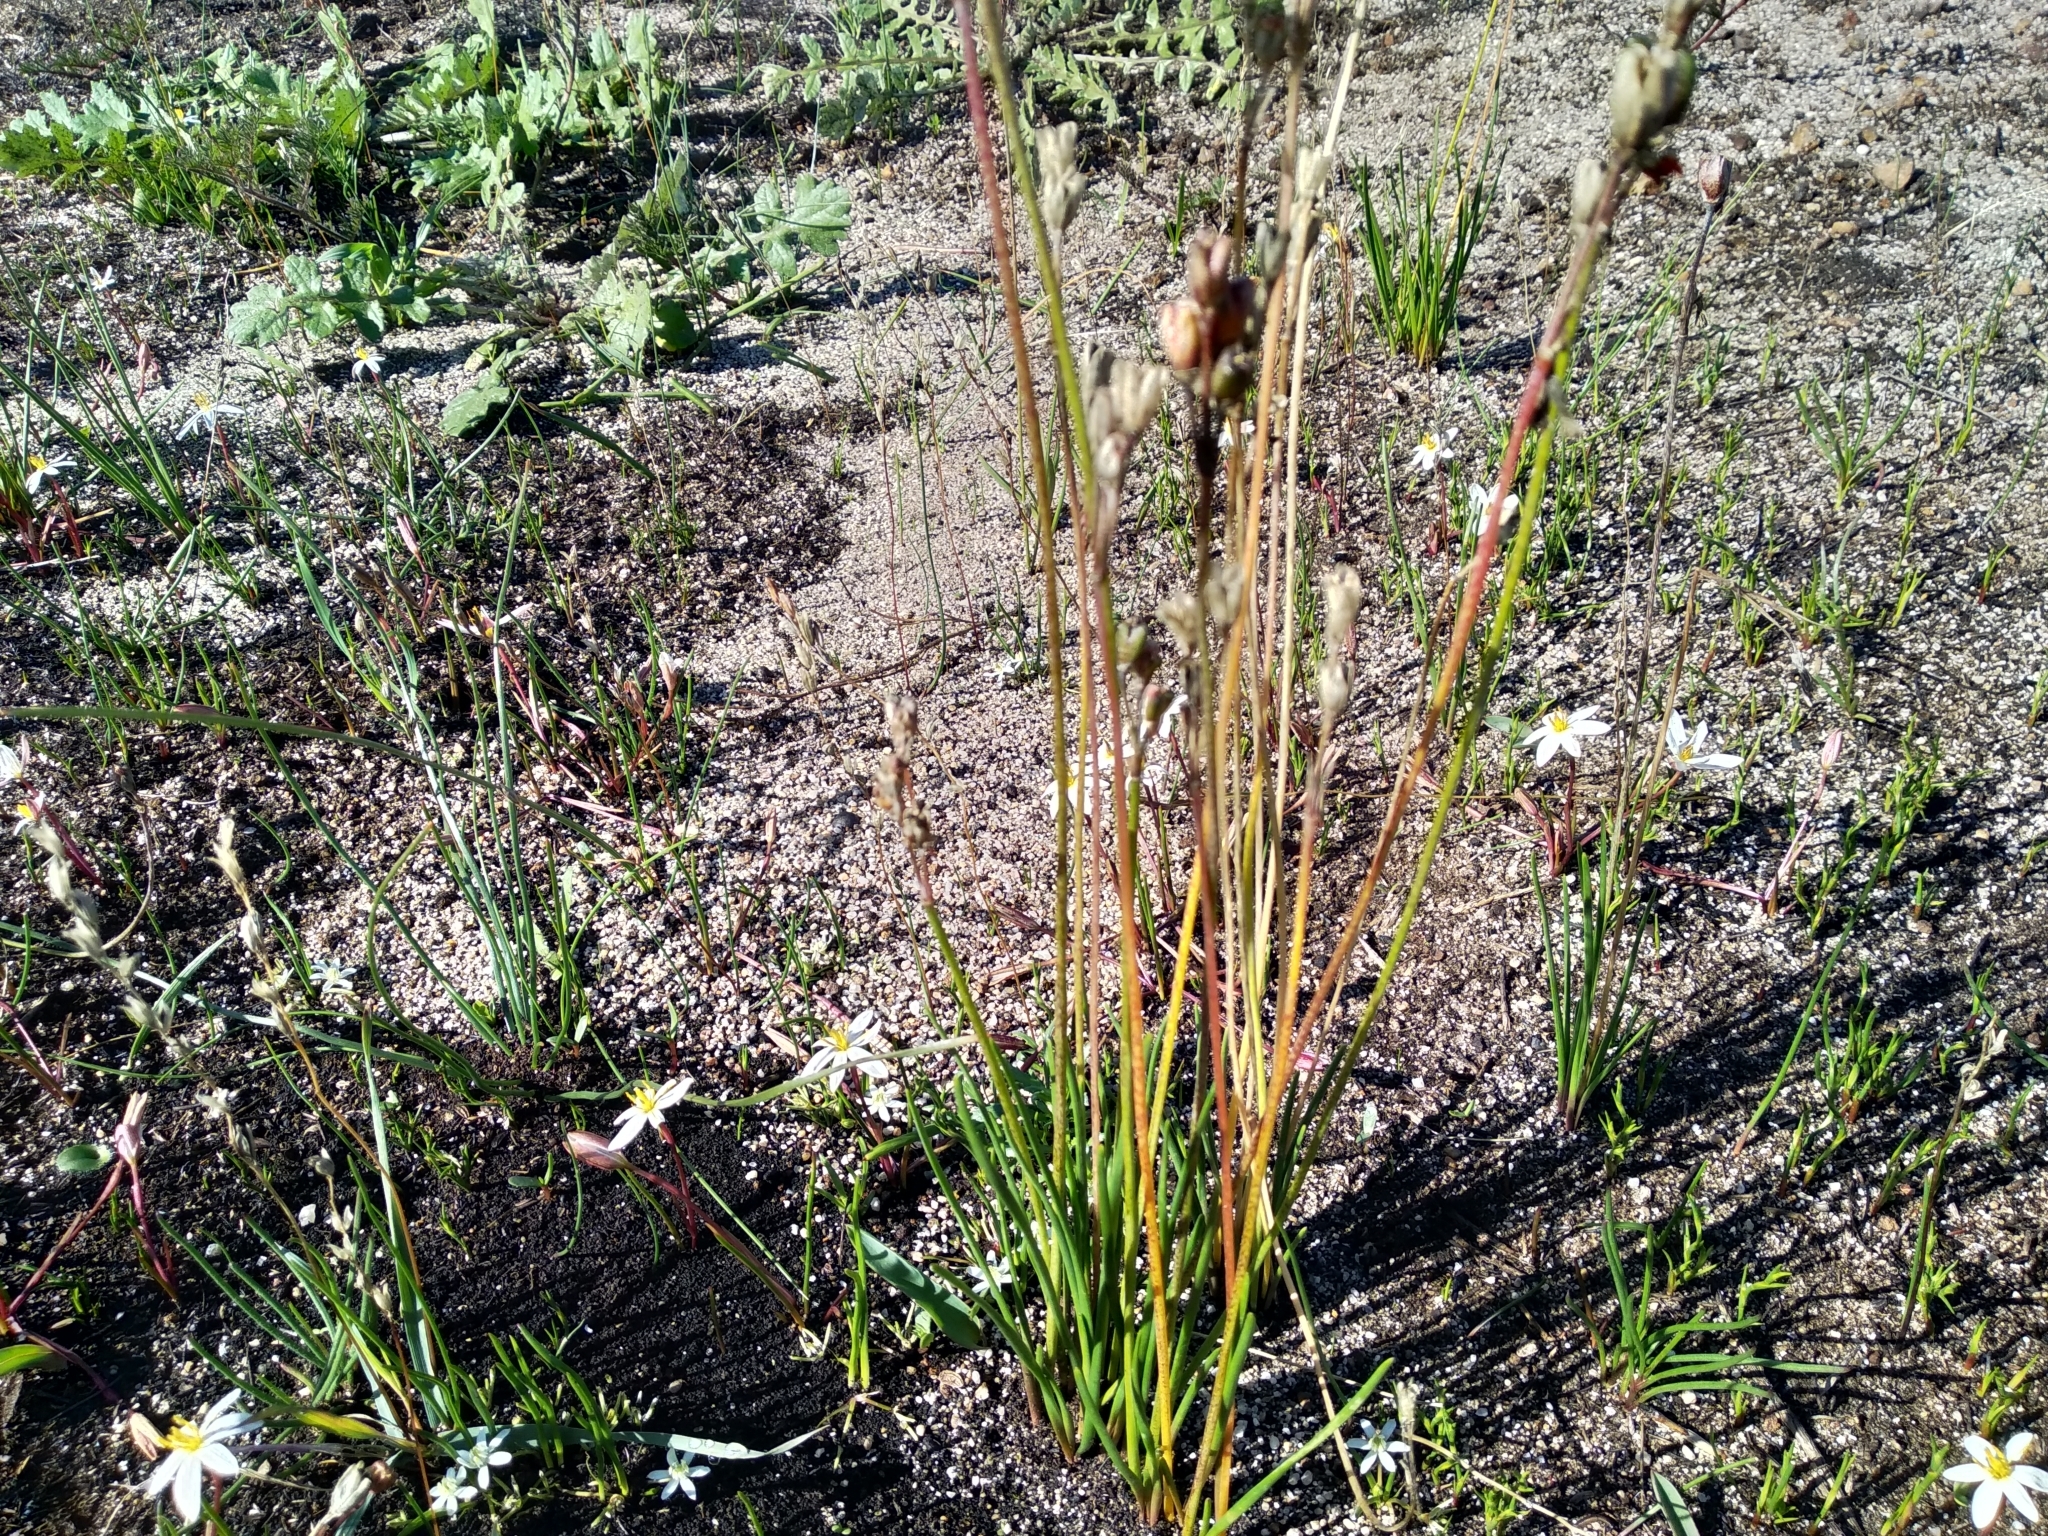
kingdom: Plantae
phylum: Tracheophyta
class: Liliopsida
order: Asparagales
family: Amaryllidaceae
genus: Tulbaghia
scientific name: Tulbaghia alliacea
